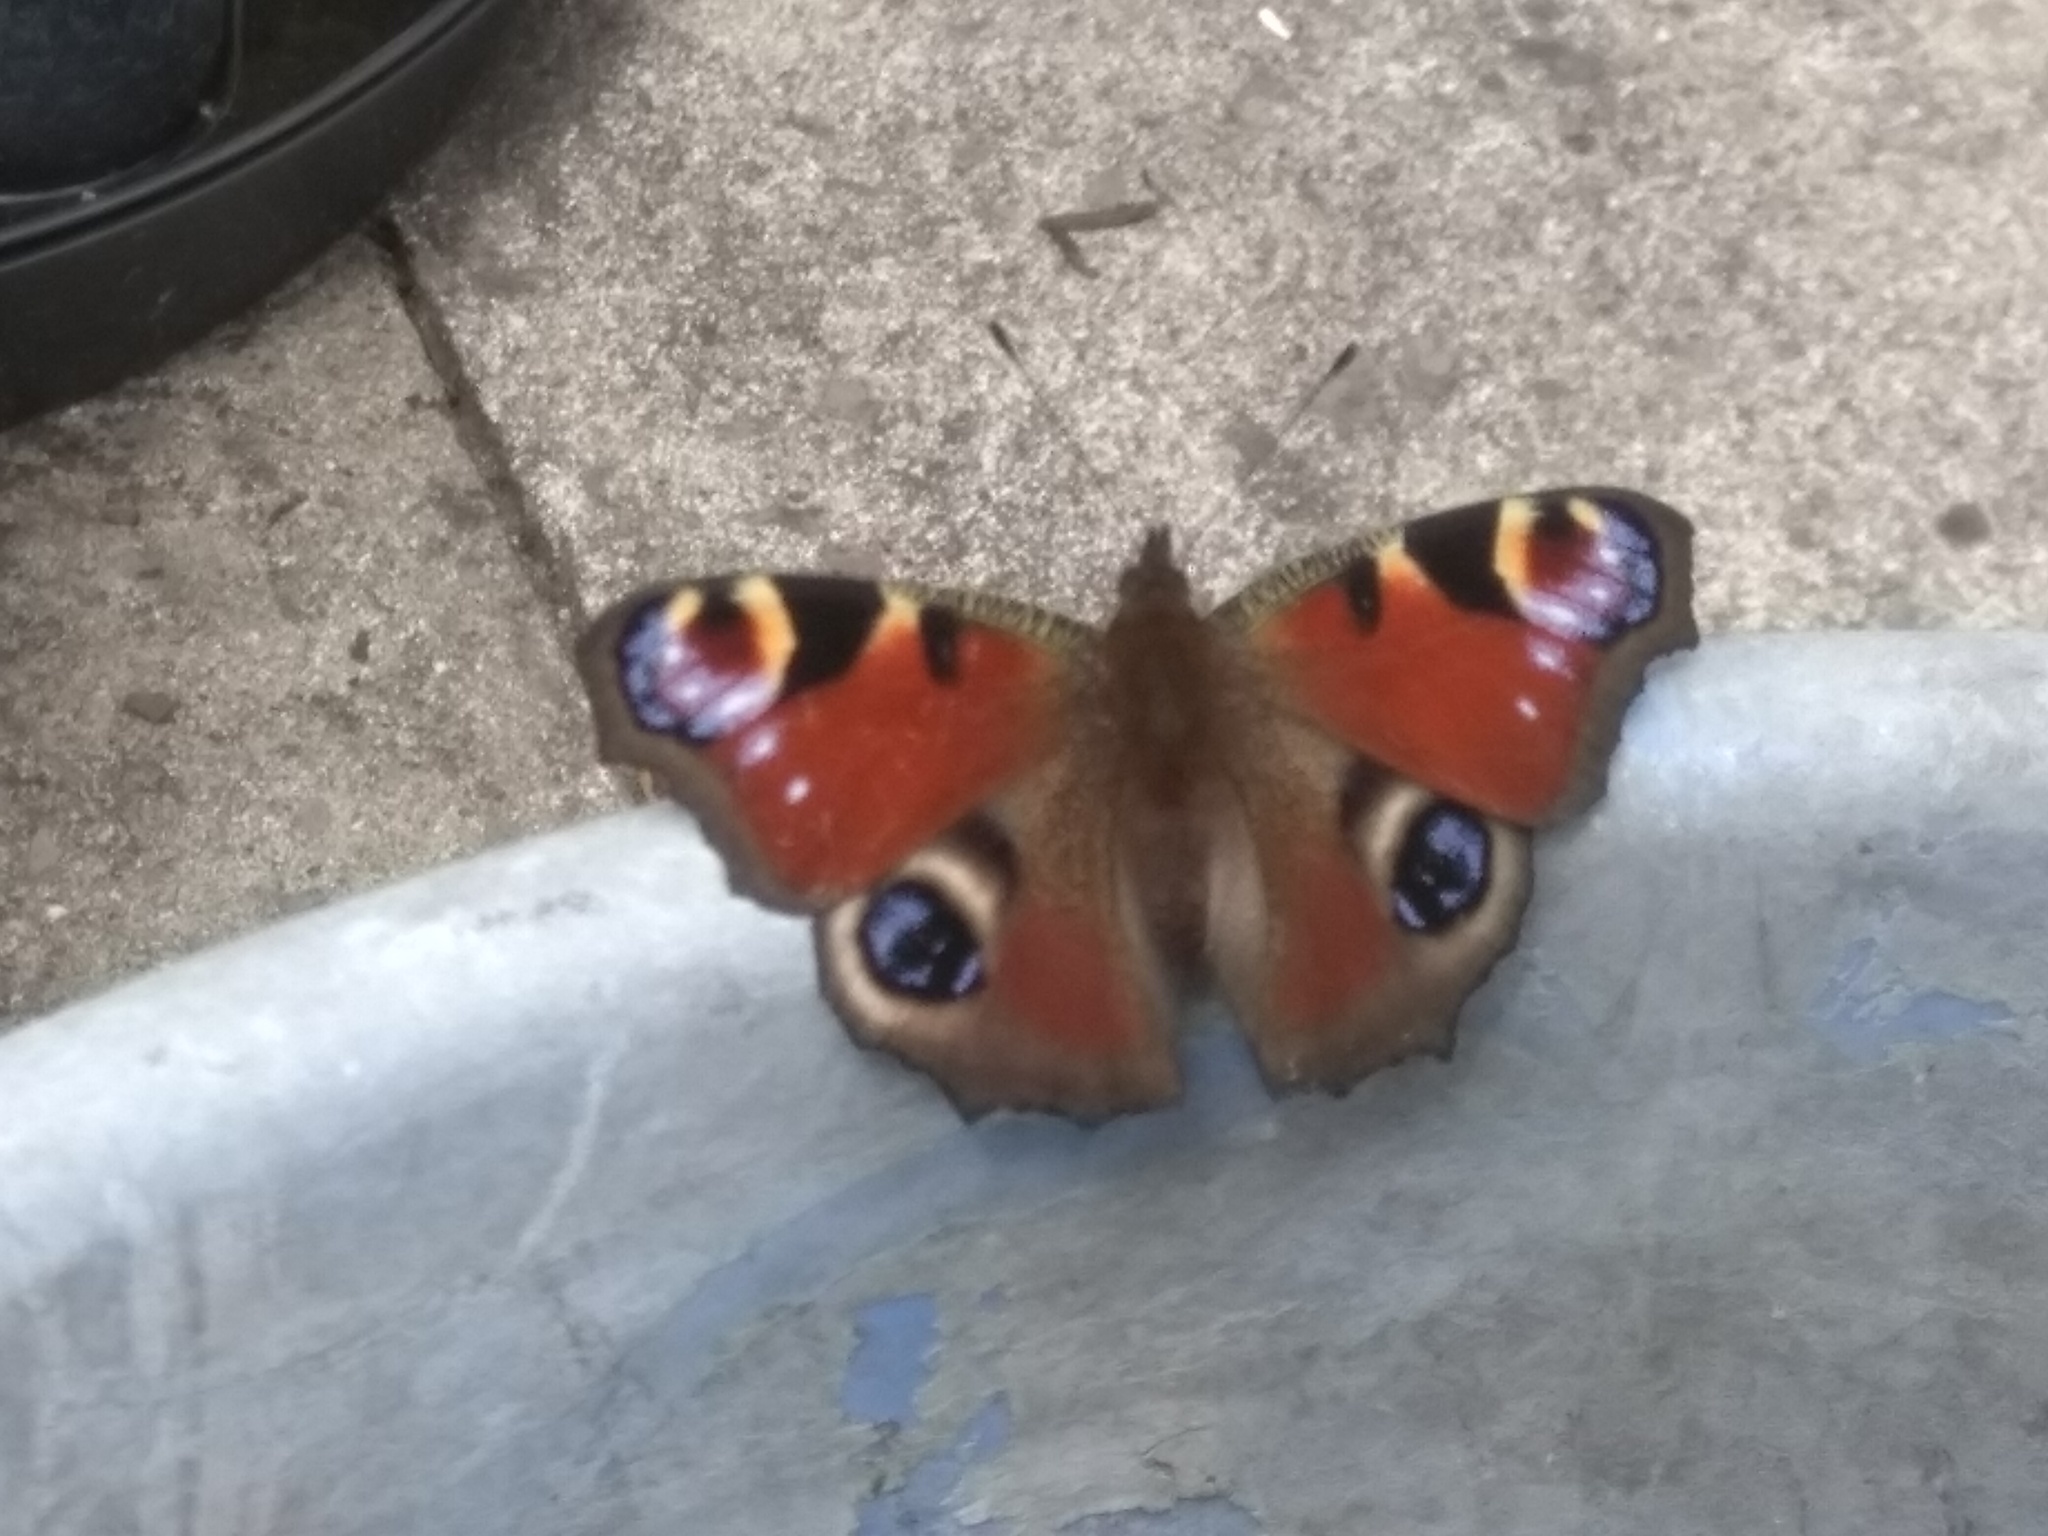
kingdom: Animalia
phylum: Arthropoda
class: Insecta
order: Lepidoptera
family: Nymphalidae
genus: Aglais
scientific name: Aglais io
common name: Peacock
